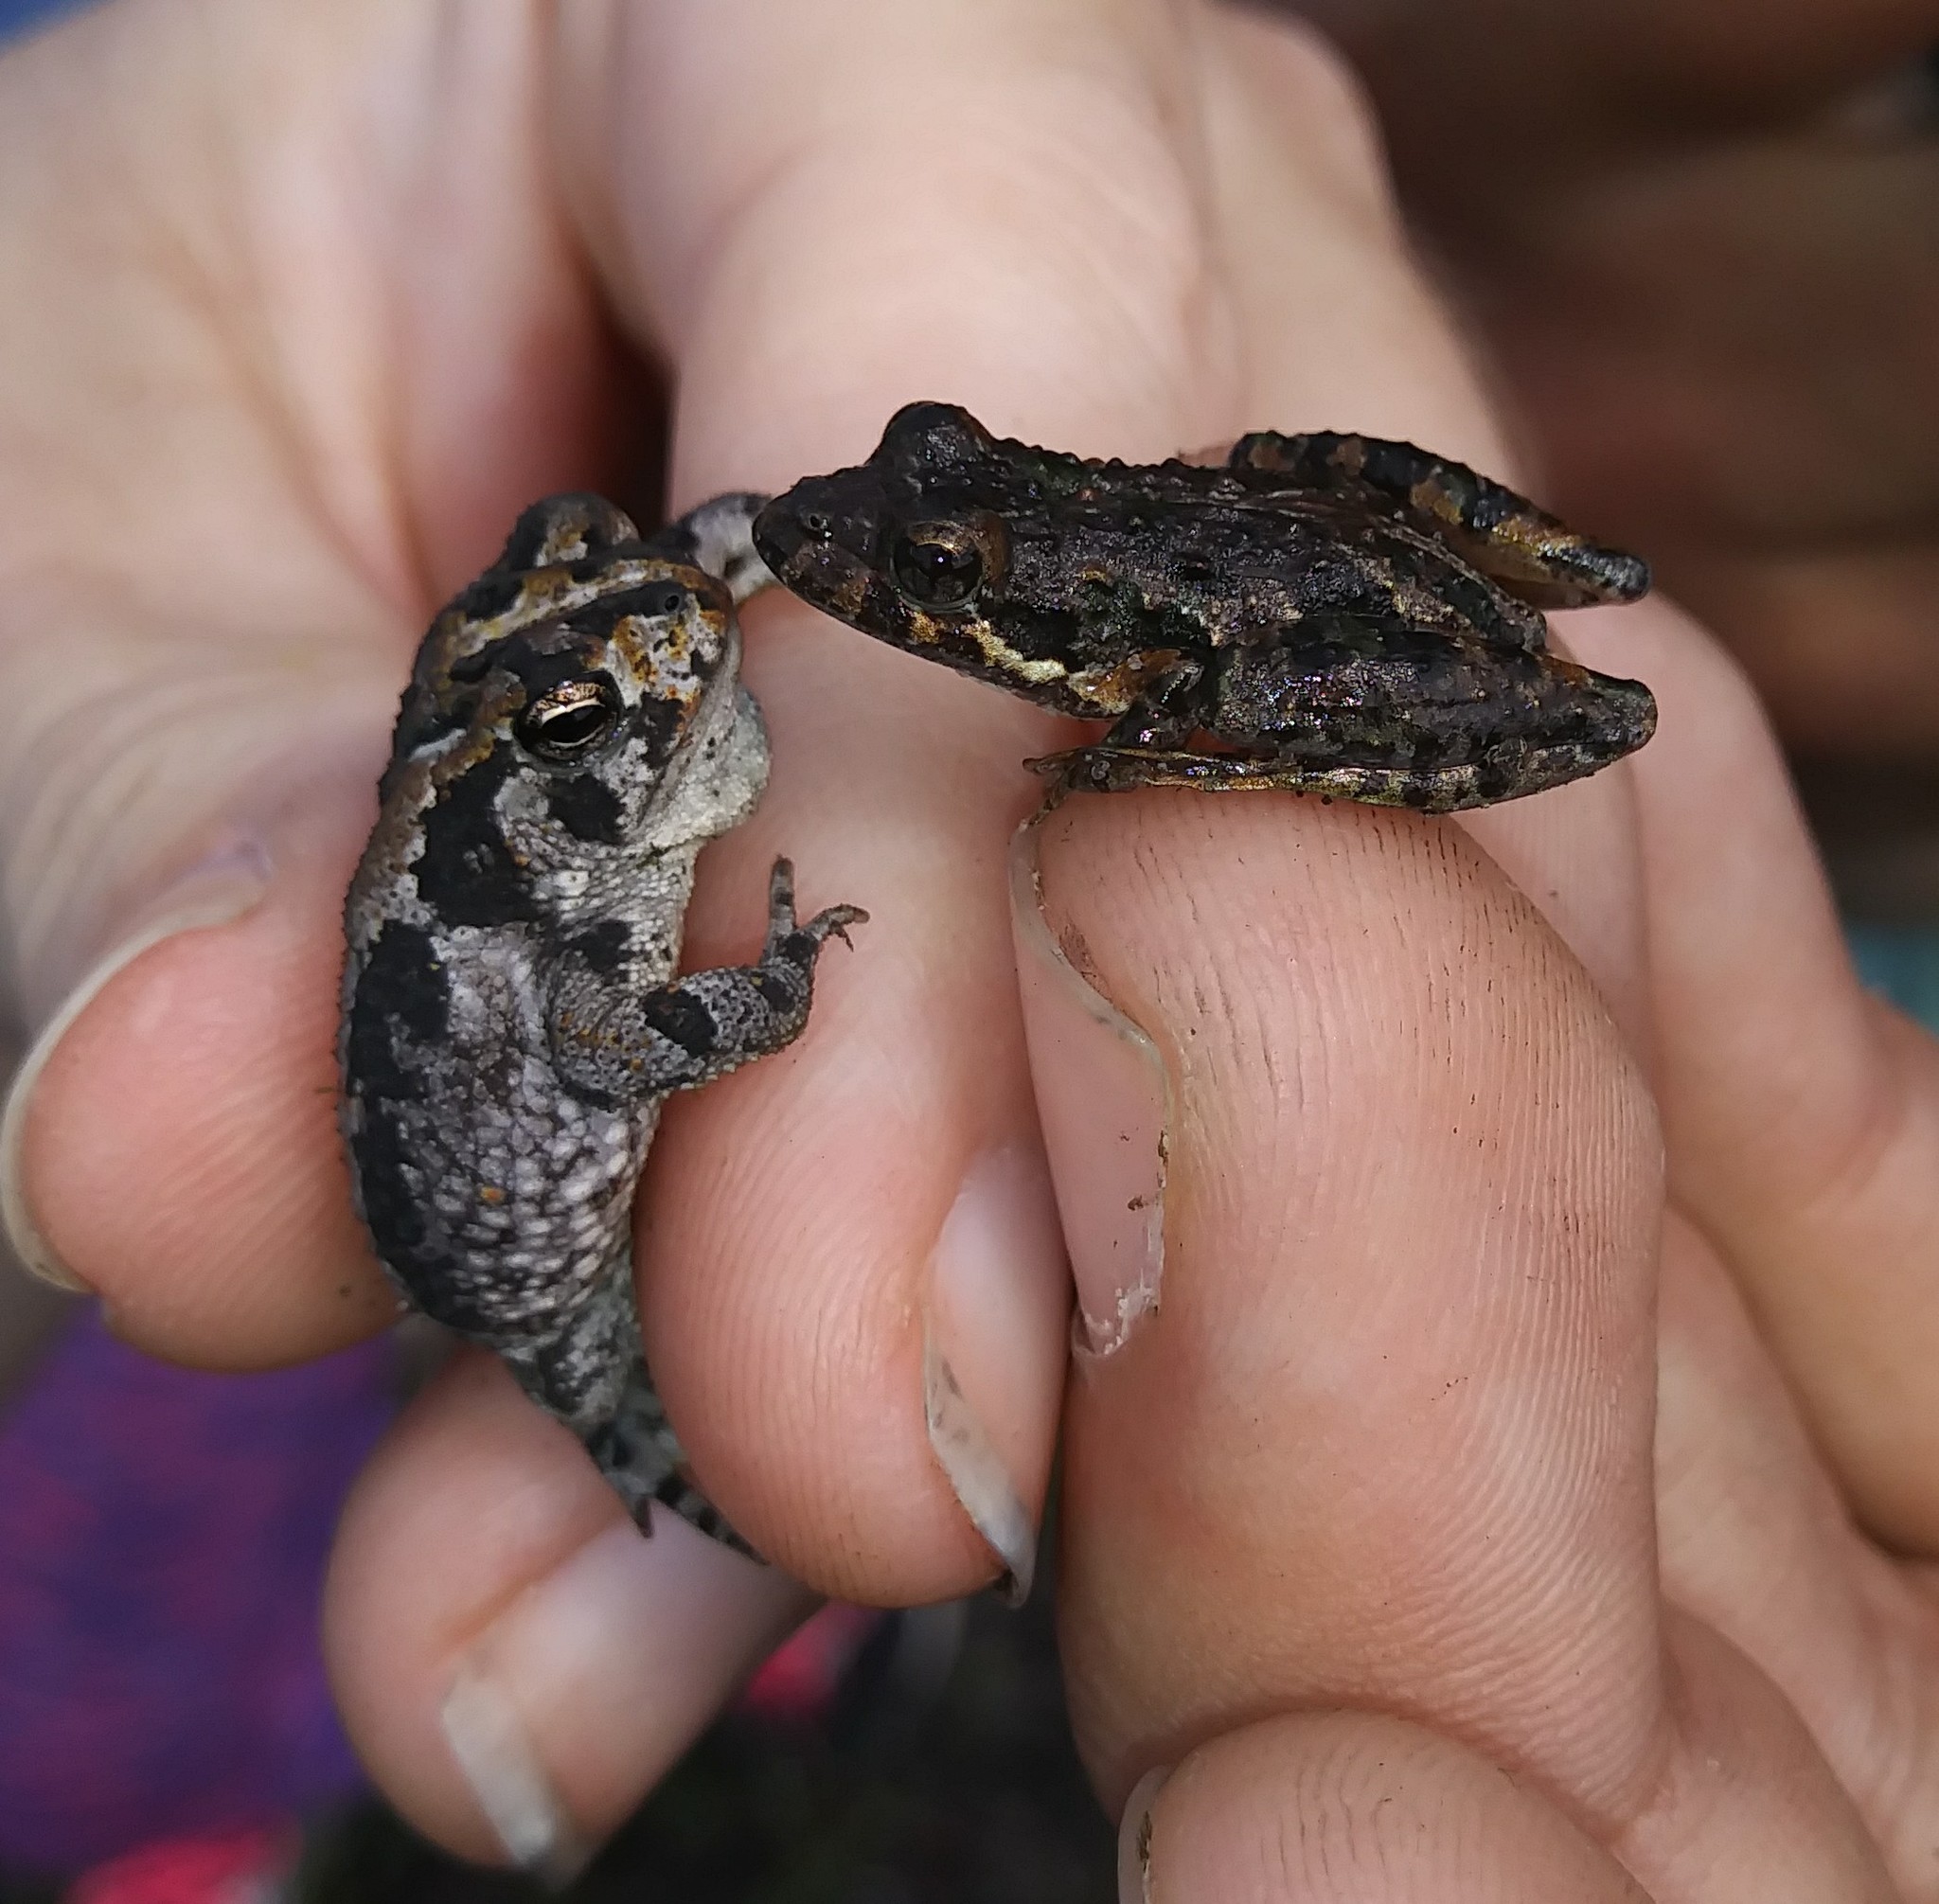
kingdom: Animalia
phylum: Chordata
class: Amphibia
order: Anura
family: Hylidae
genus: Acris
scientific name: Acris gryllus
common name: Southern cricket frog
